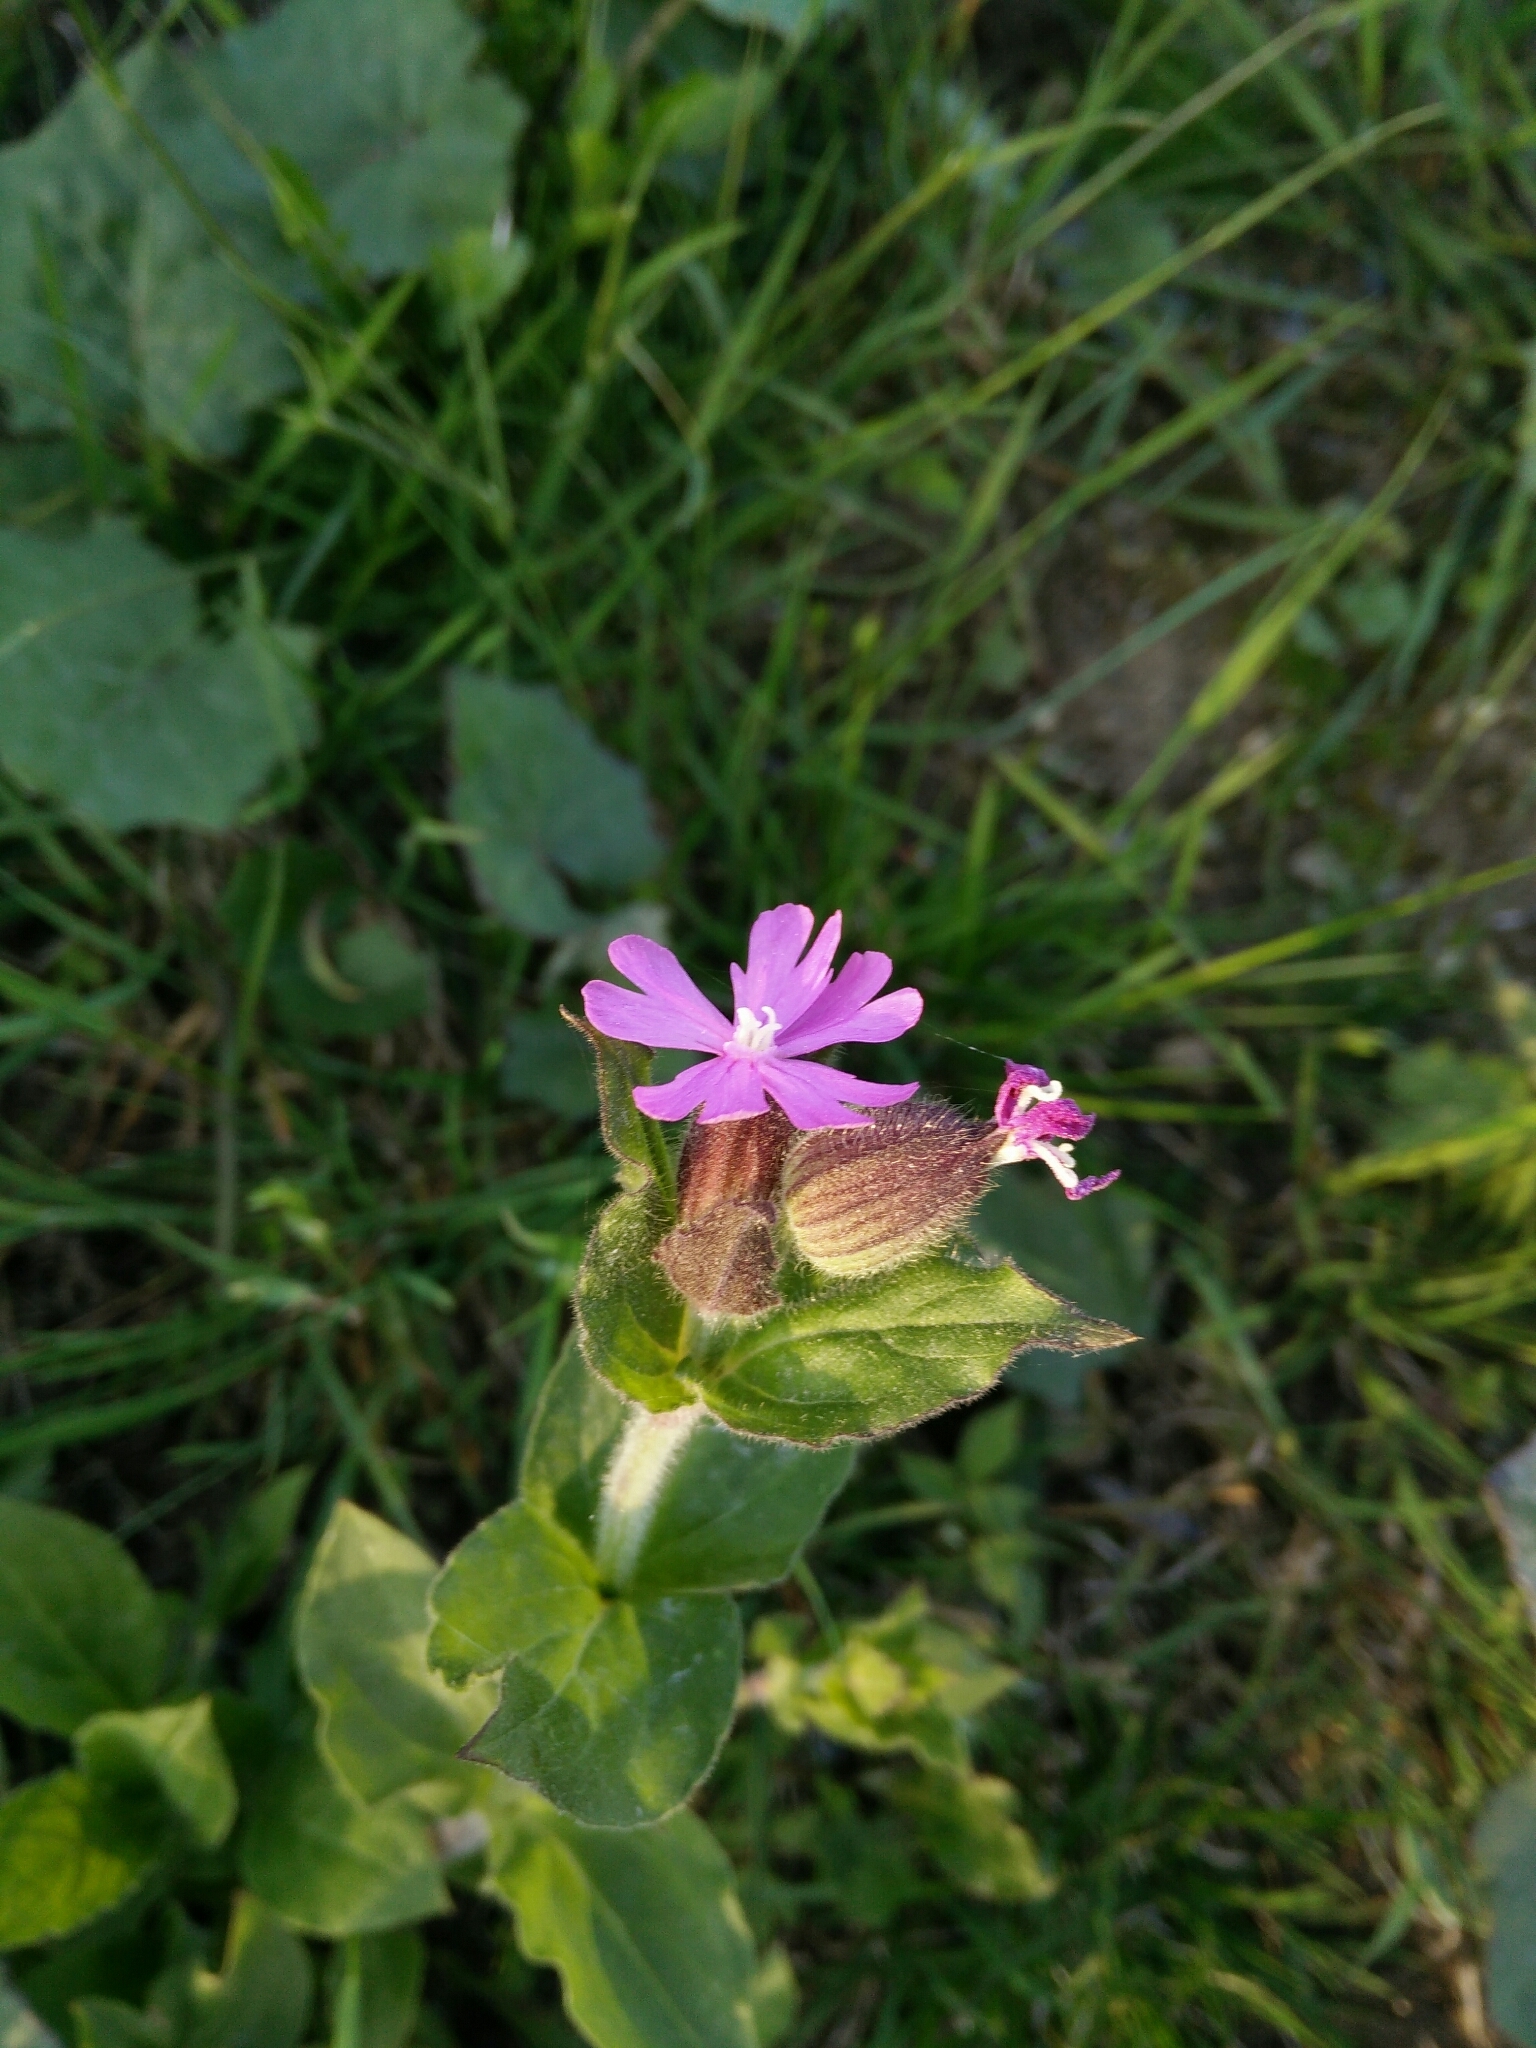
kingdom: Plantae
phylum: Tracheophyta
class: Magnoliopsida
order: Caryophyllales
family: Caryophyllaceae
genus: Silene
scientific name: Silene dioica
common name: Red campion
